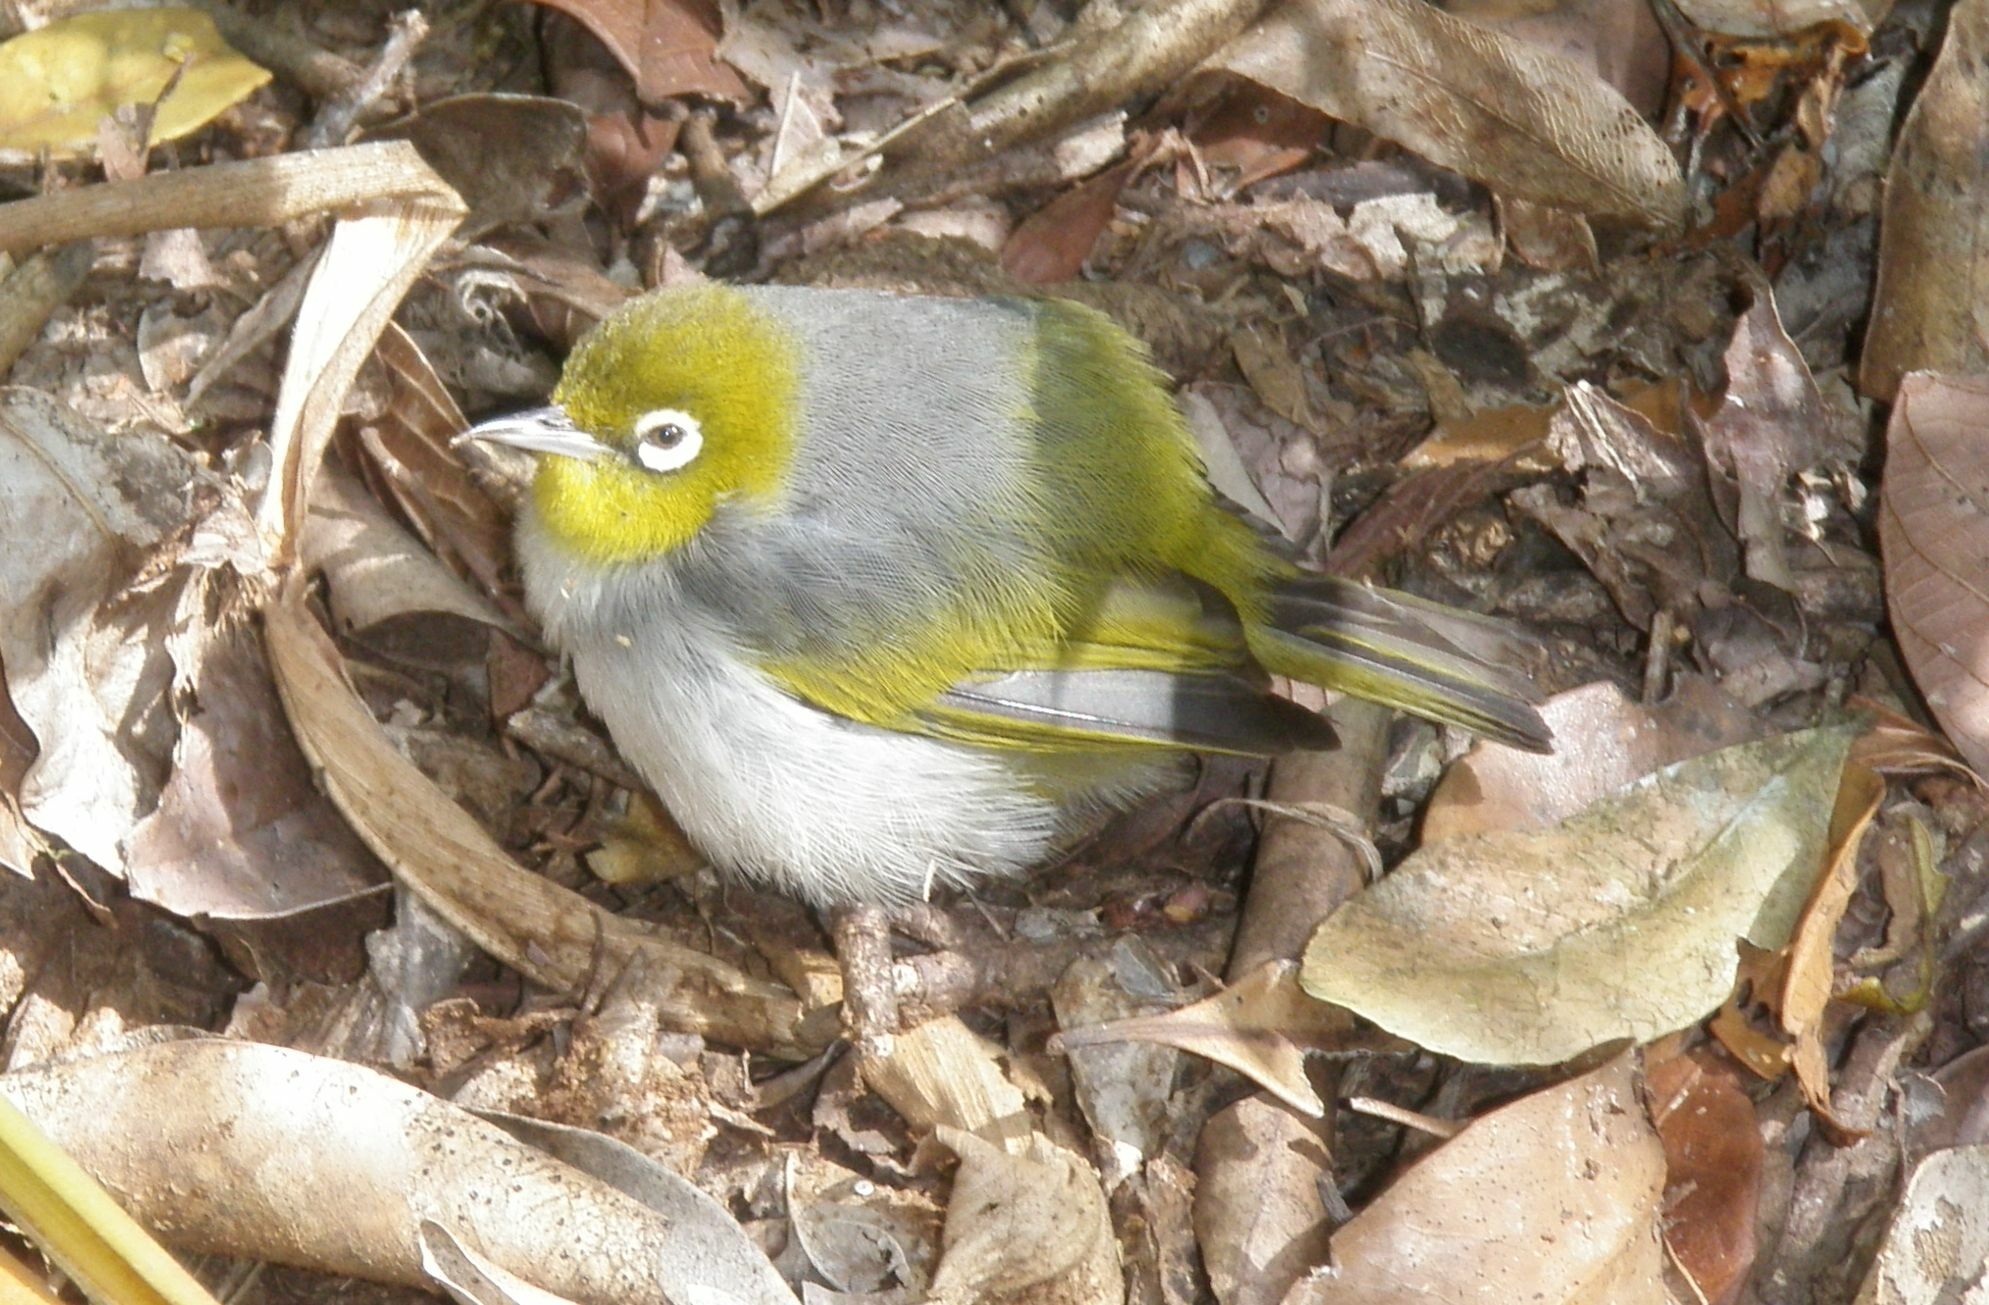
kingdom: Animalia
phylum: Chordata
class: Aves
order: Passeriformes
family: Zosteropidae
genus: Zosterops
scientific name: Zosterops lateralis
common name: Silvereye
